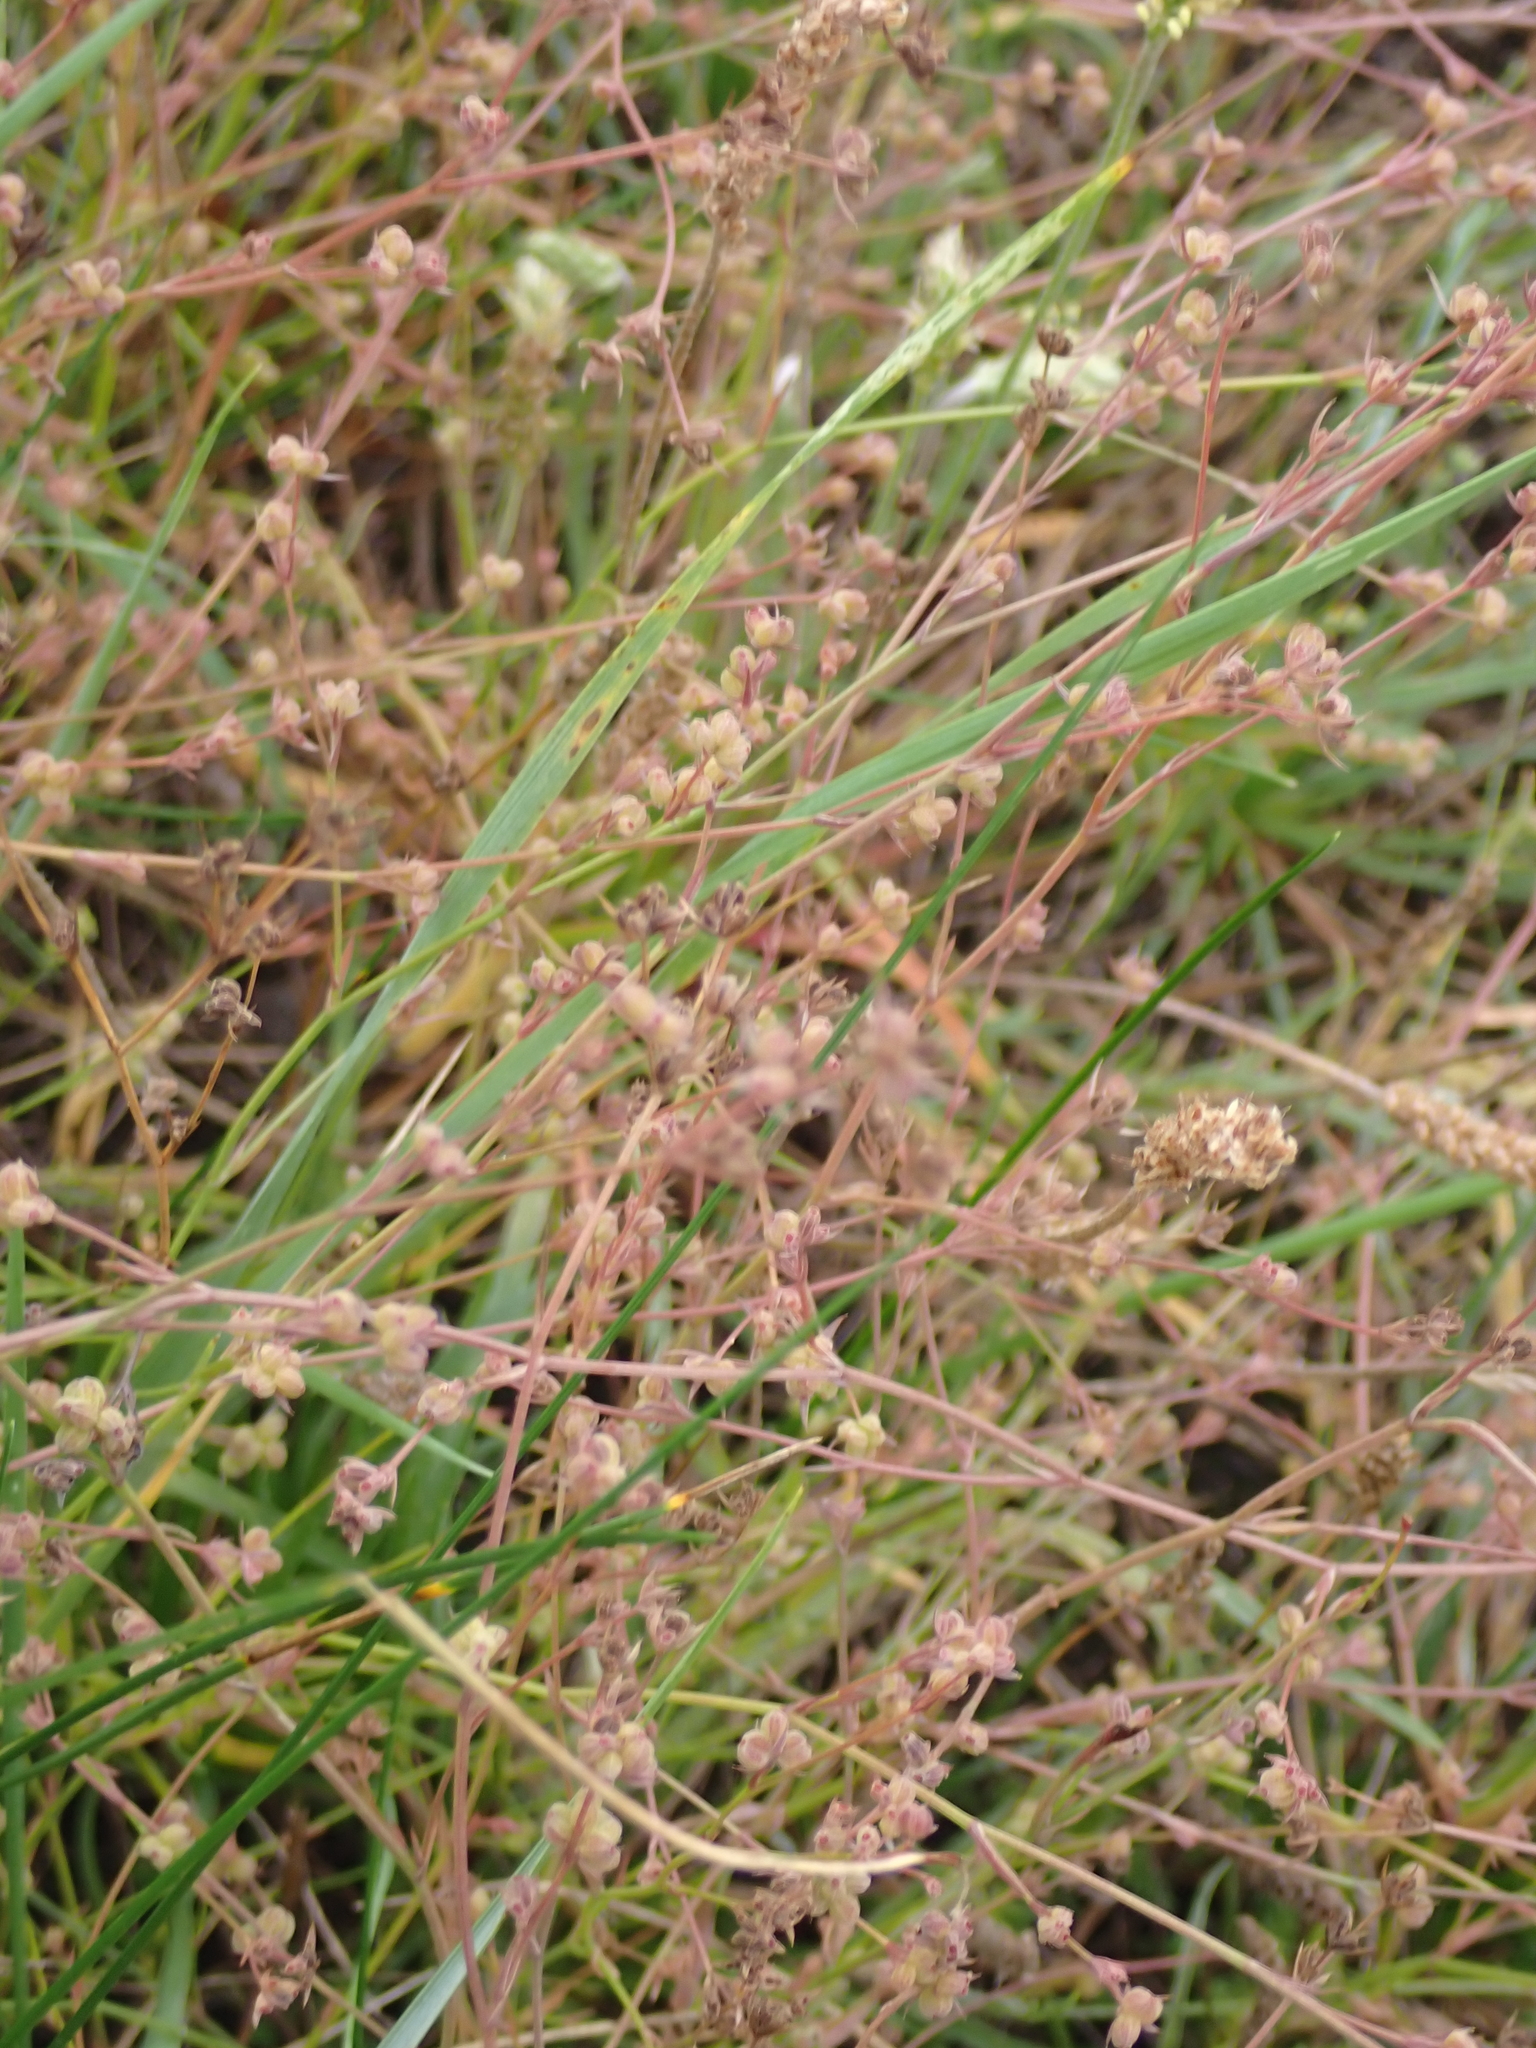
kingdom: Plantae
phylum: Tracheophyta
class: Magnoliopsida
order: Apiales
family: Apiaceae
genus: Bupleurum
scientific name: Bupleurum tenuissimum
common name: Slender hare's-ear
